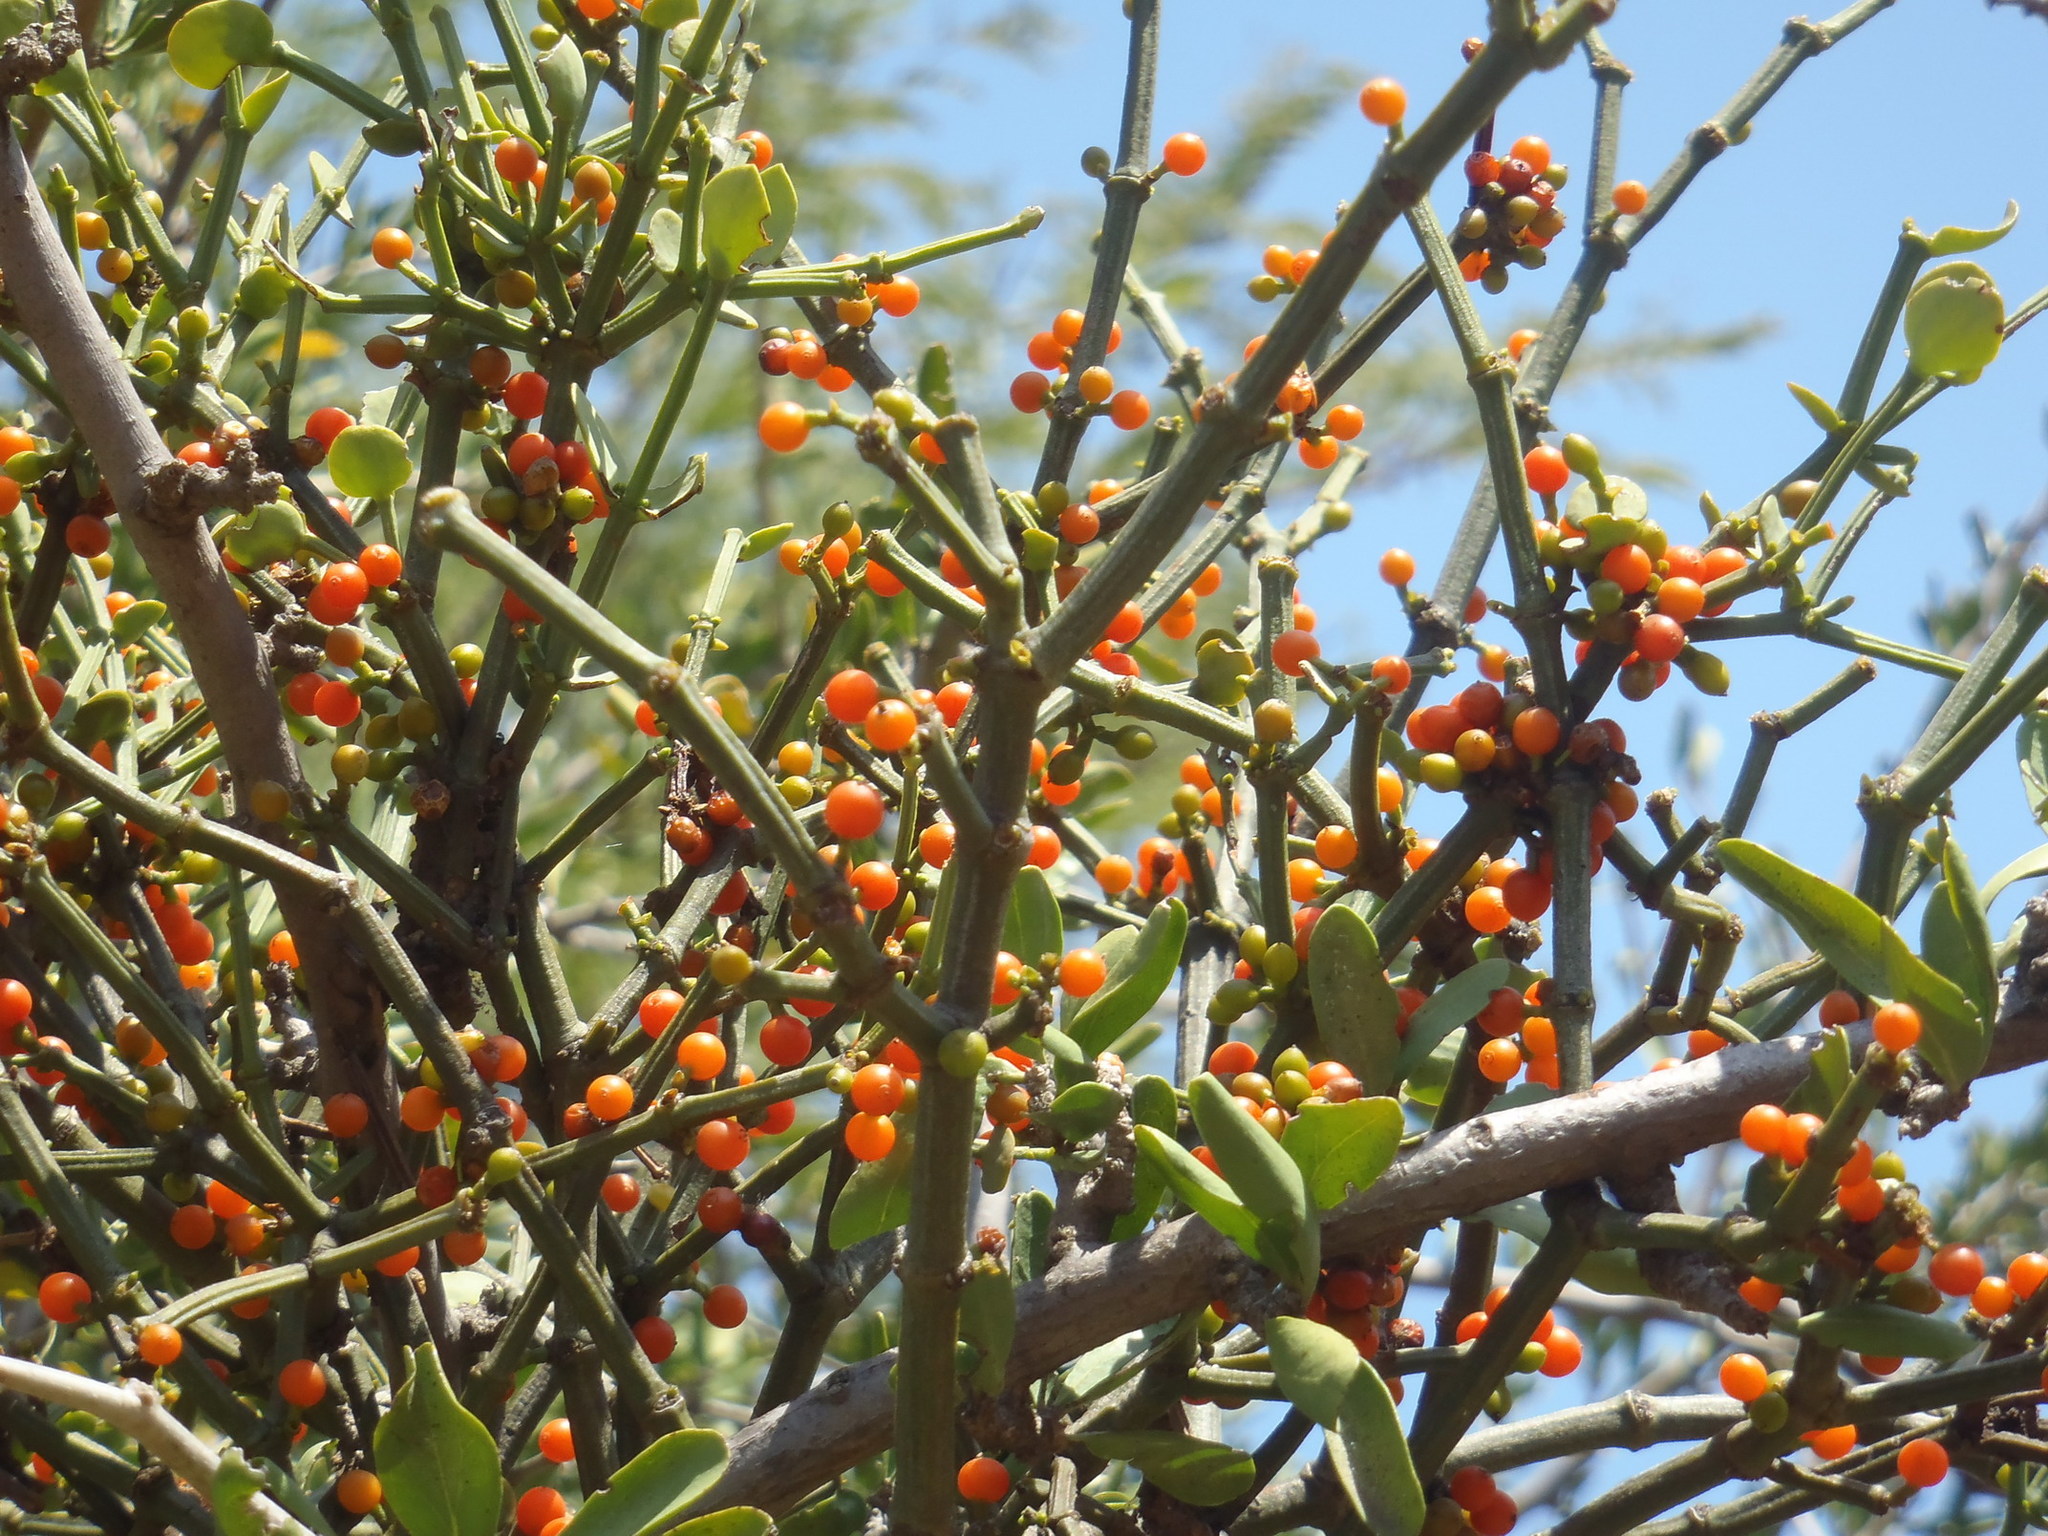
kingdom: Plantae
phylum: Tracheophyta
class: Magnoliopsida
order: Santalales
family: Viscaceae
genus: Viscum
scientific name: Viscum rotundifolium
